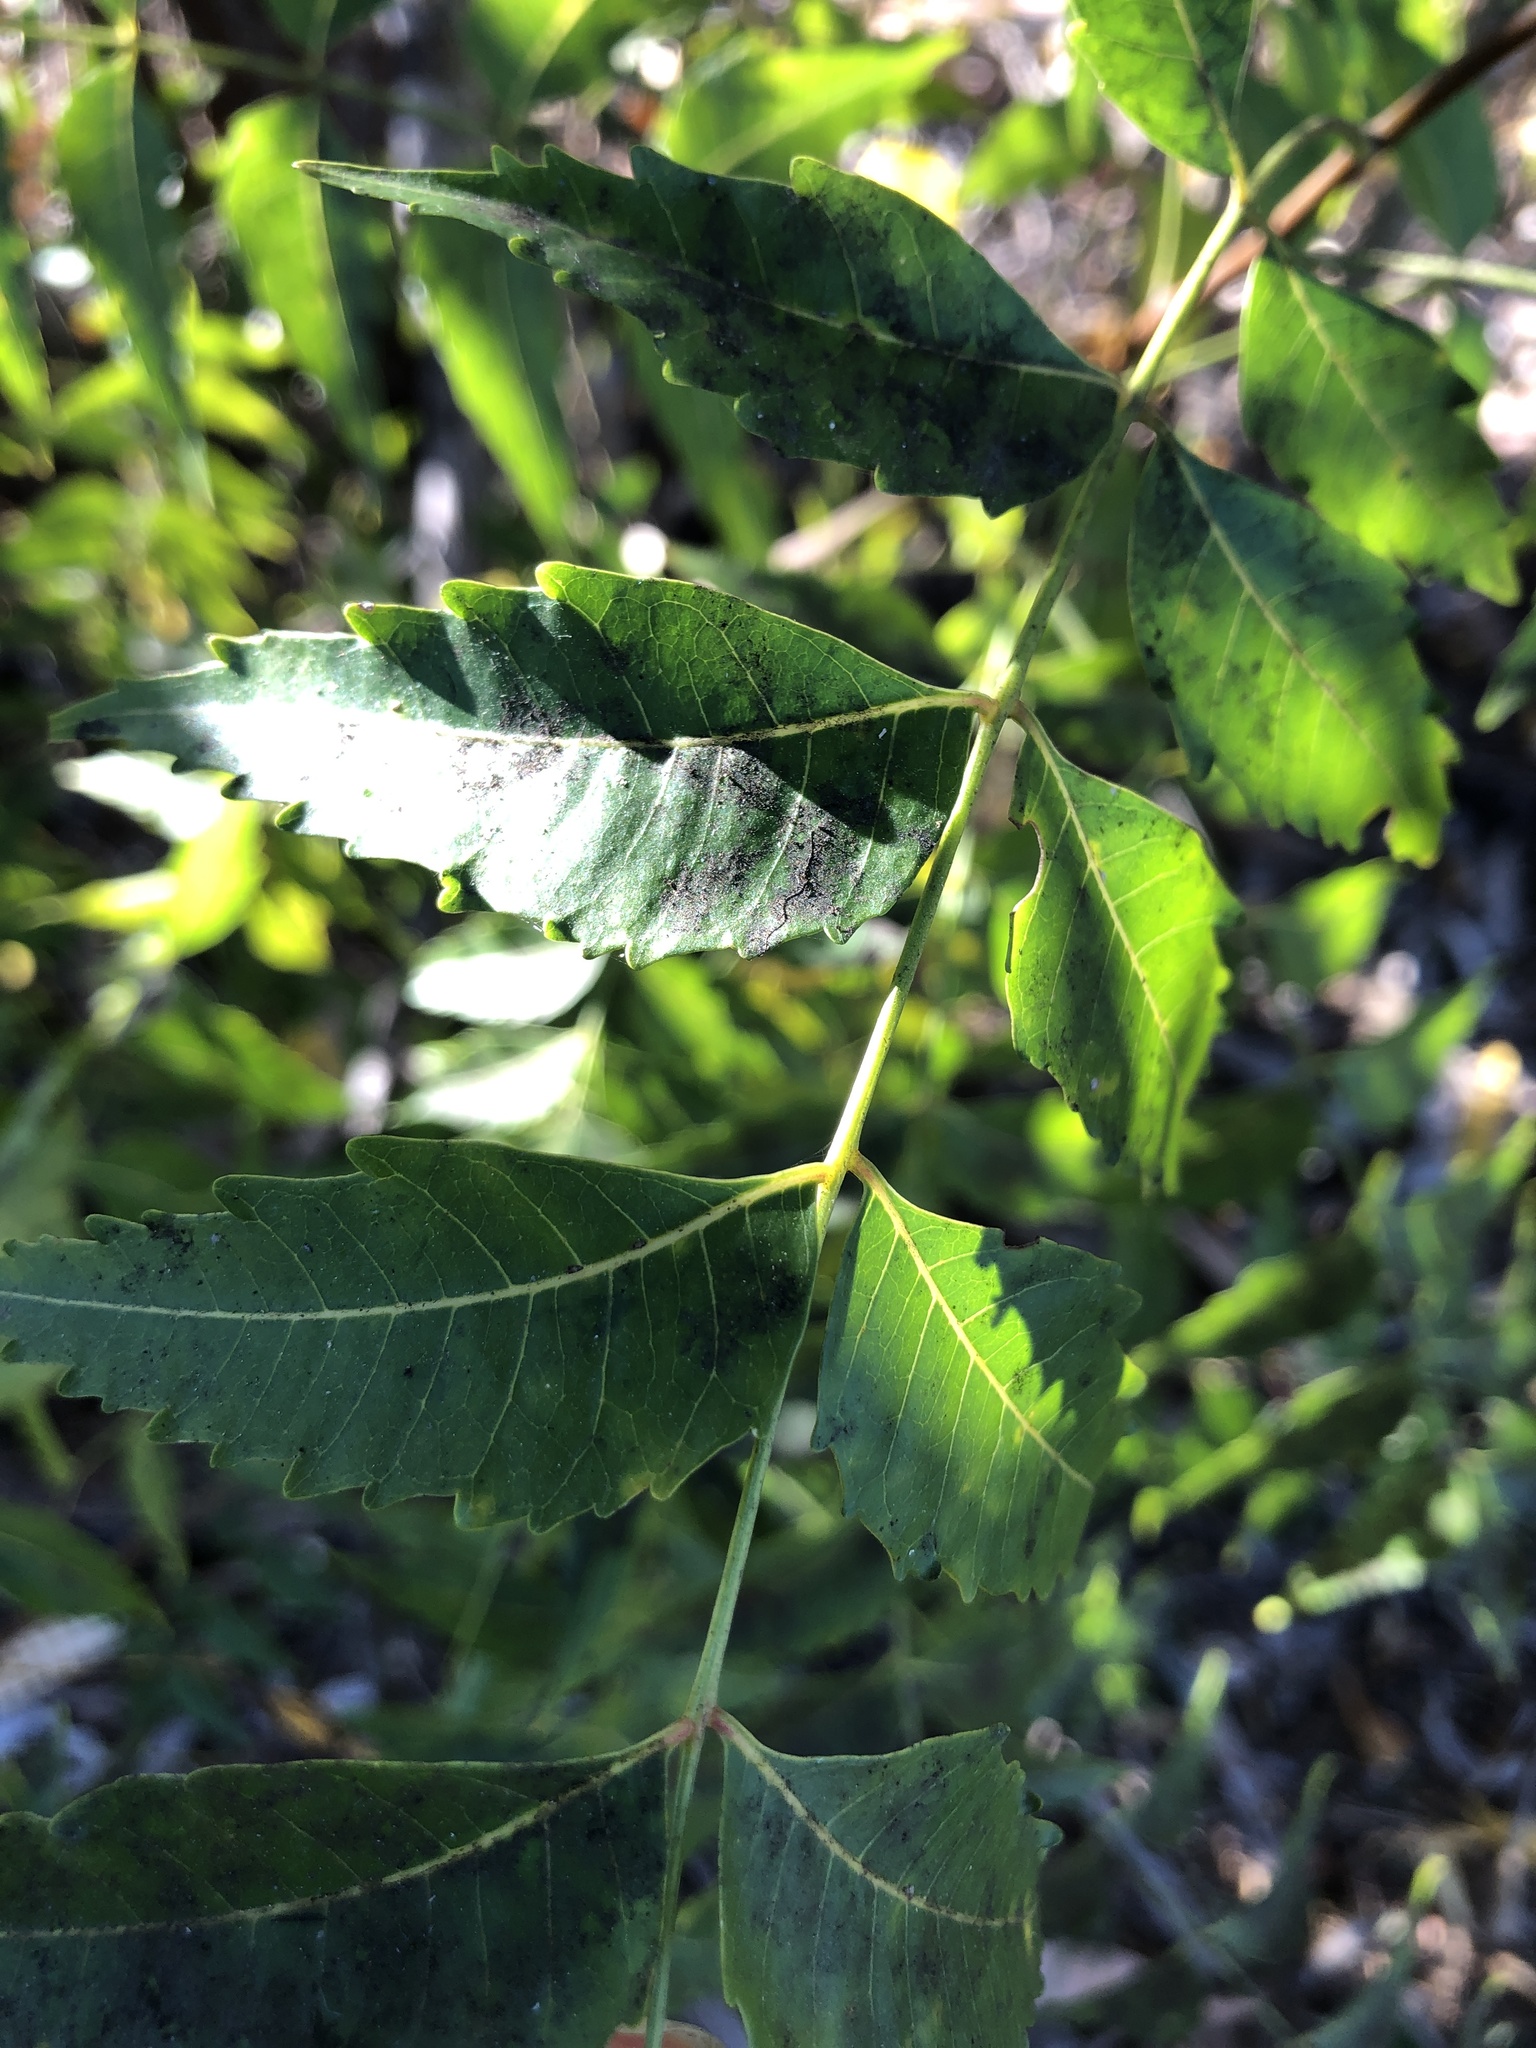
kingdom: Plantae
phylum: Tracheophyta
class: Magnoliopsida
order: Sapindales
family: Meliaceae
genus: Azadirachta
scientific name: Azadirachta indica
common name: Neem
